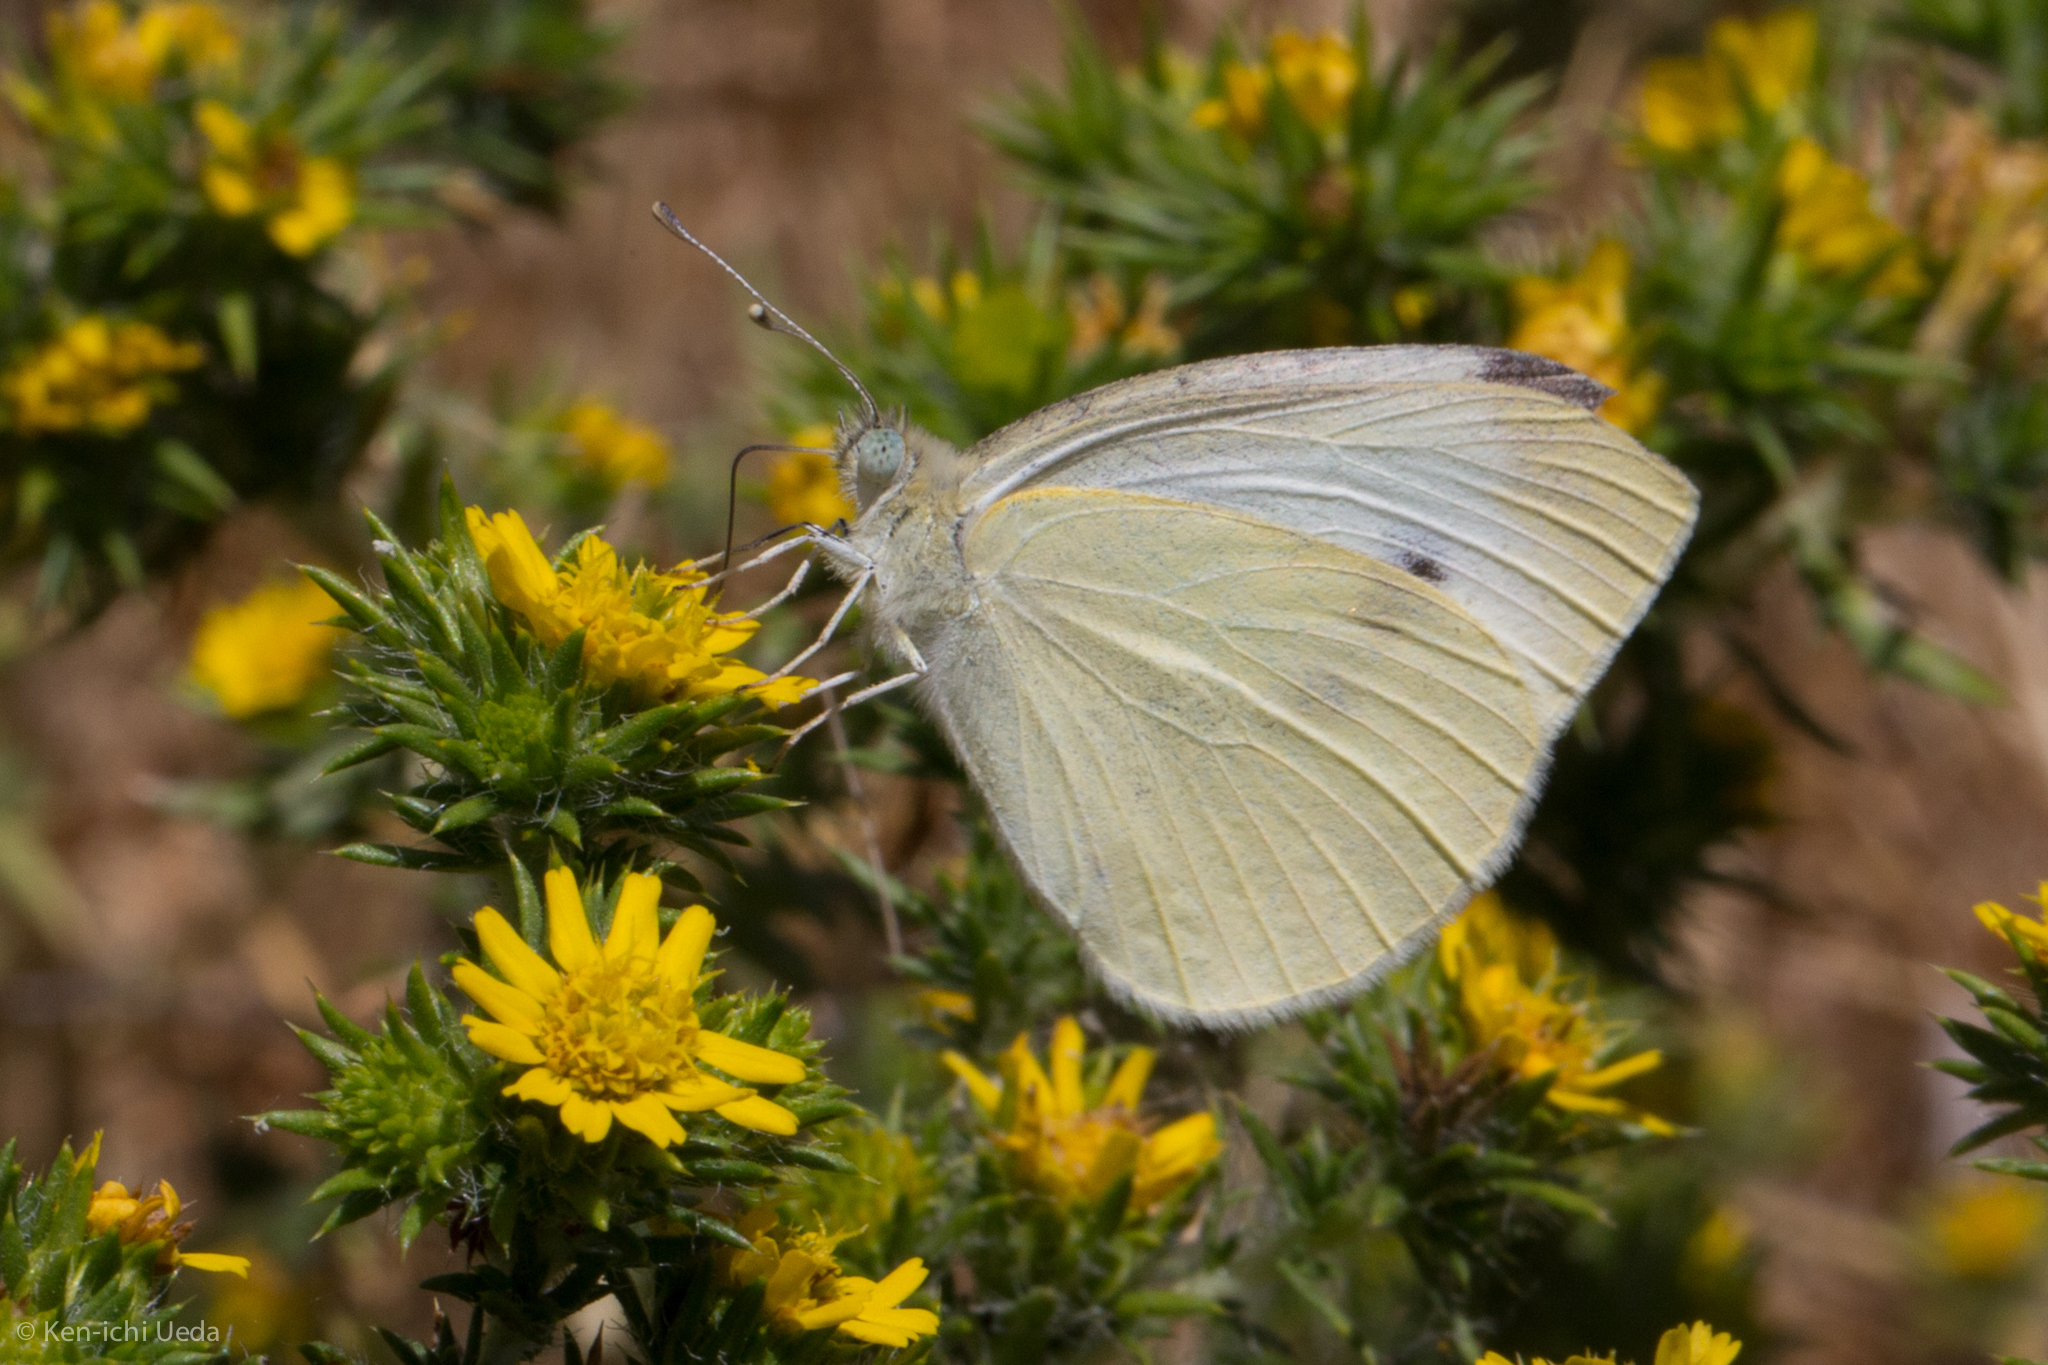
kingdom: Animalia
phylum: Arthropoda
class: Insecta
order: Lepidoptera
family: Pieridae
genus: Pieris
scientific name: Pieris rapae
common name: Small white
